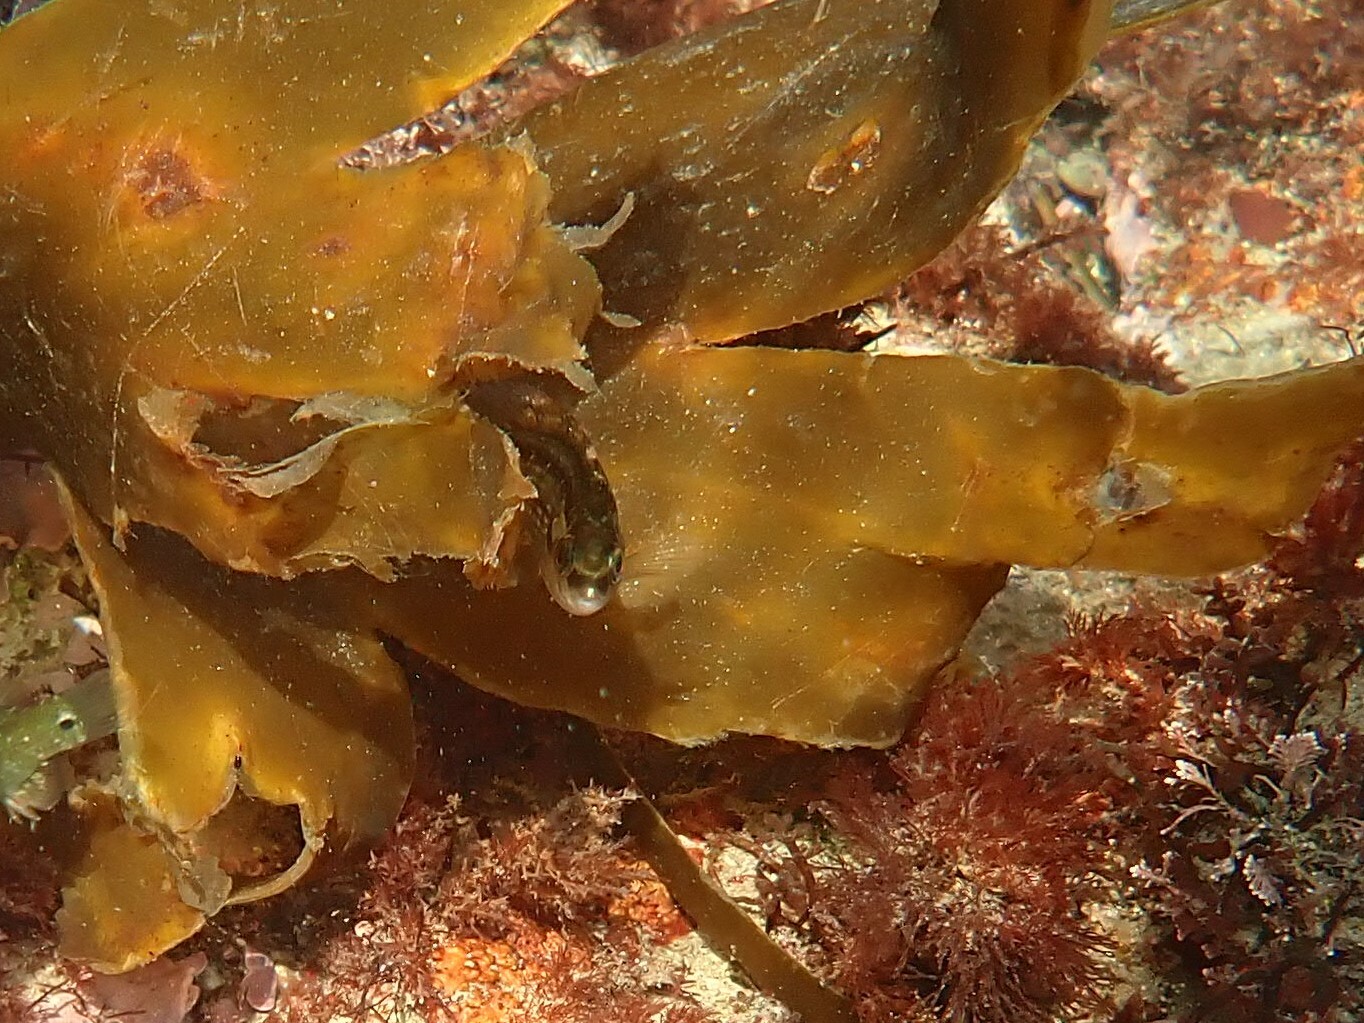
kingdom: Animalia
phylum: Chordata
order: Perciformes
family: Labridae
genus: Symphodus
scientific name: Symphodus melops
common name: Corkwing
